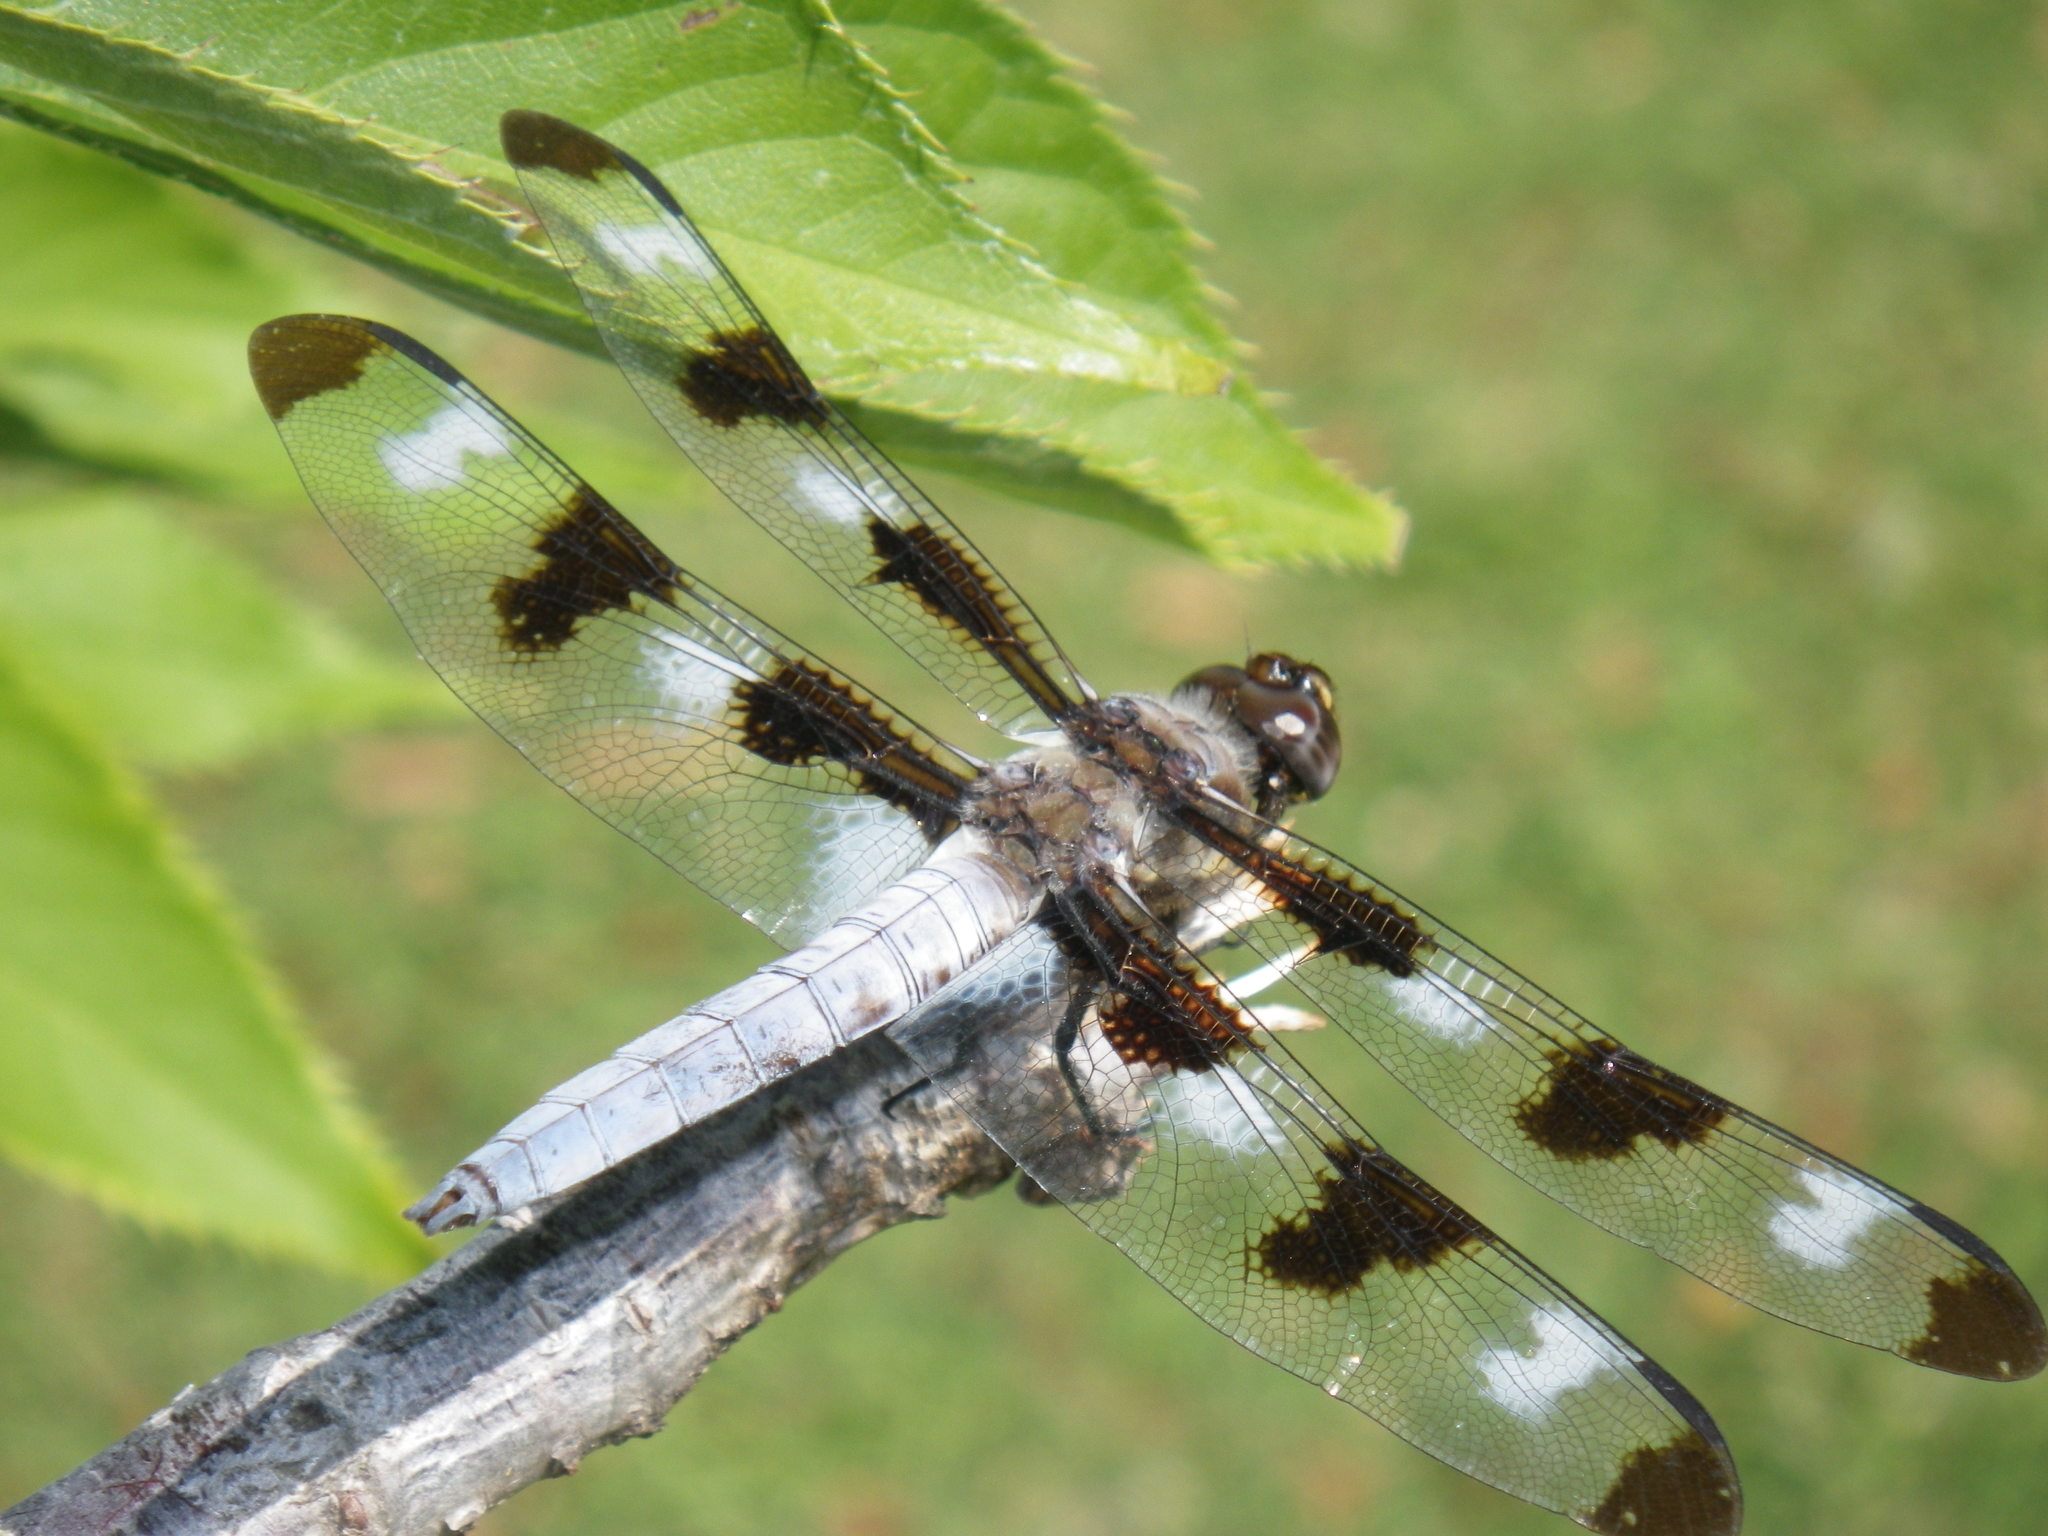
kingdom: Animalia
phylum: Arthropoda
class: Insecta
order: Odonata
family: Libellulidae
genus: Libellula
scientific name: Libellula pulchella
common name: Twelve-spotted skimmer
